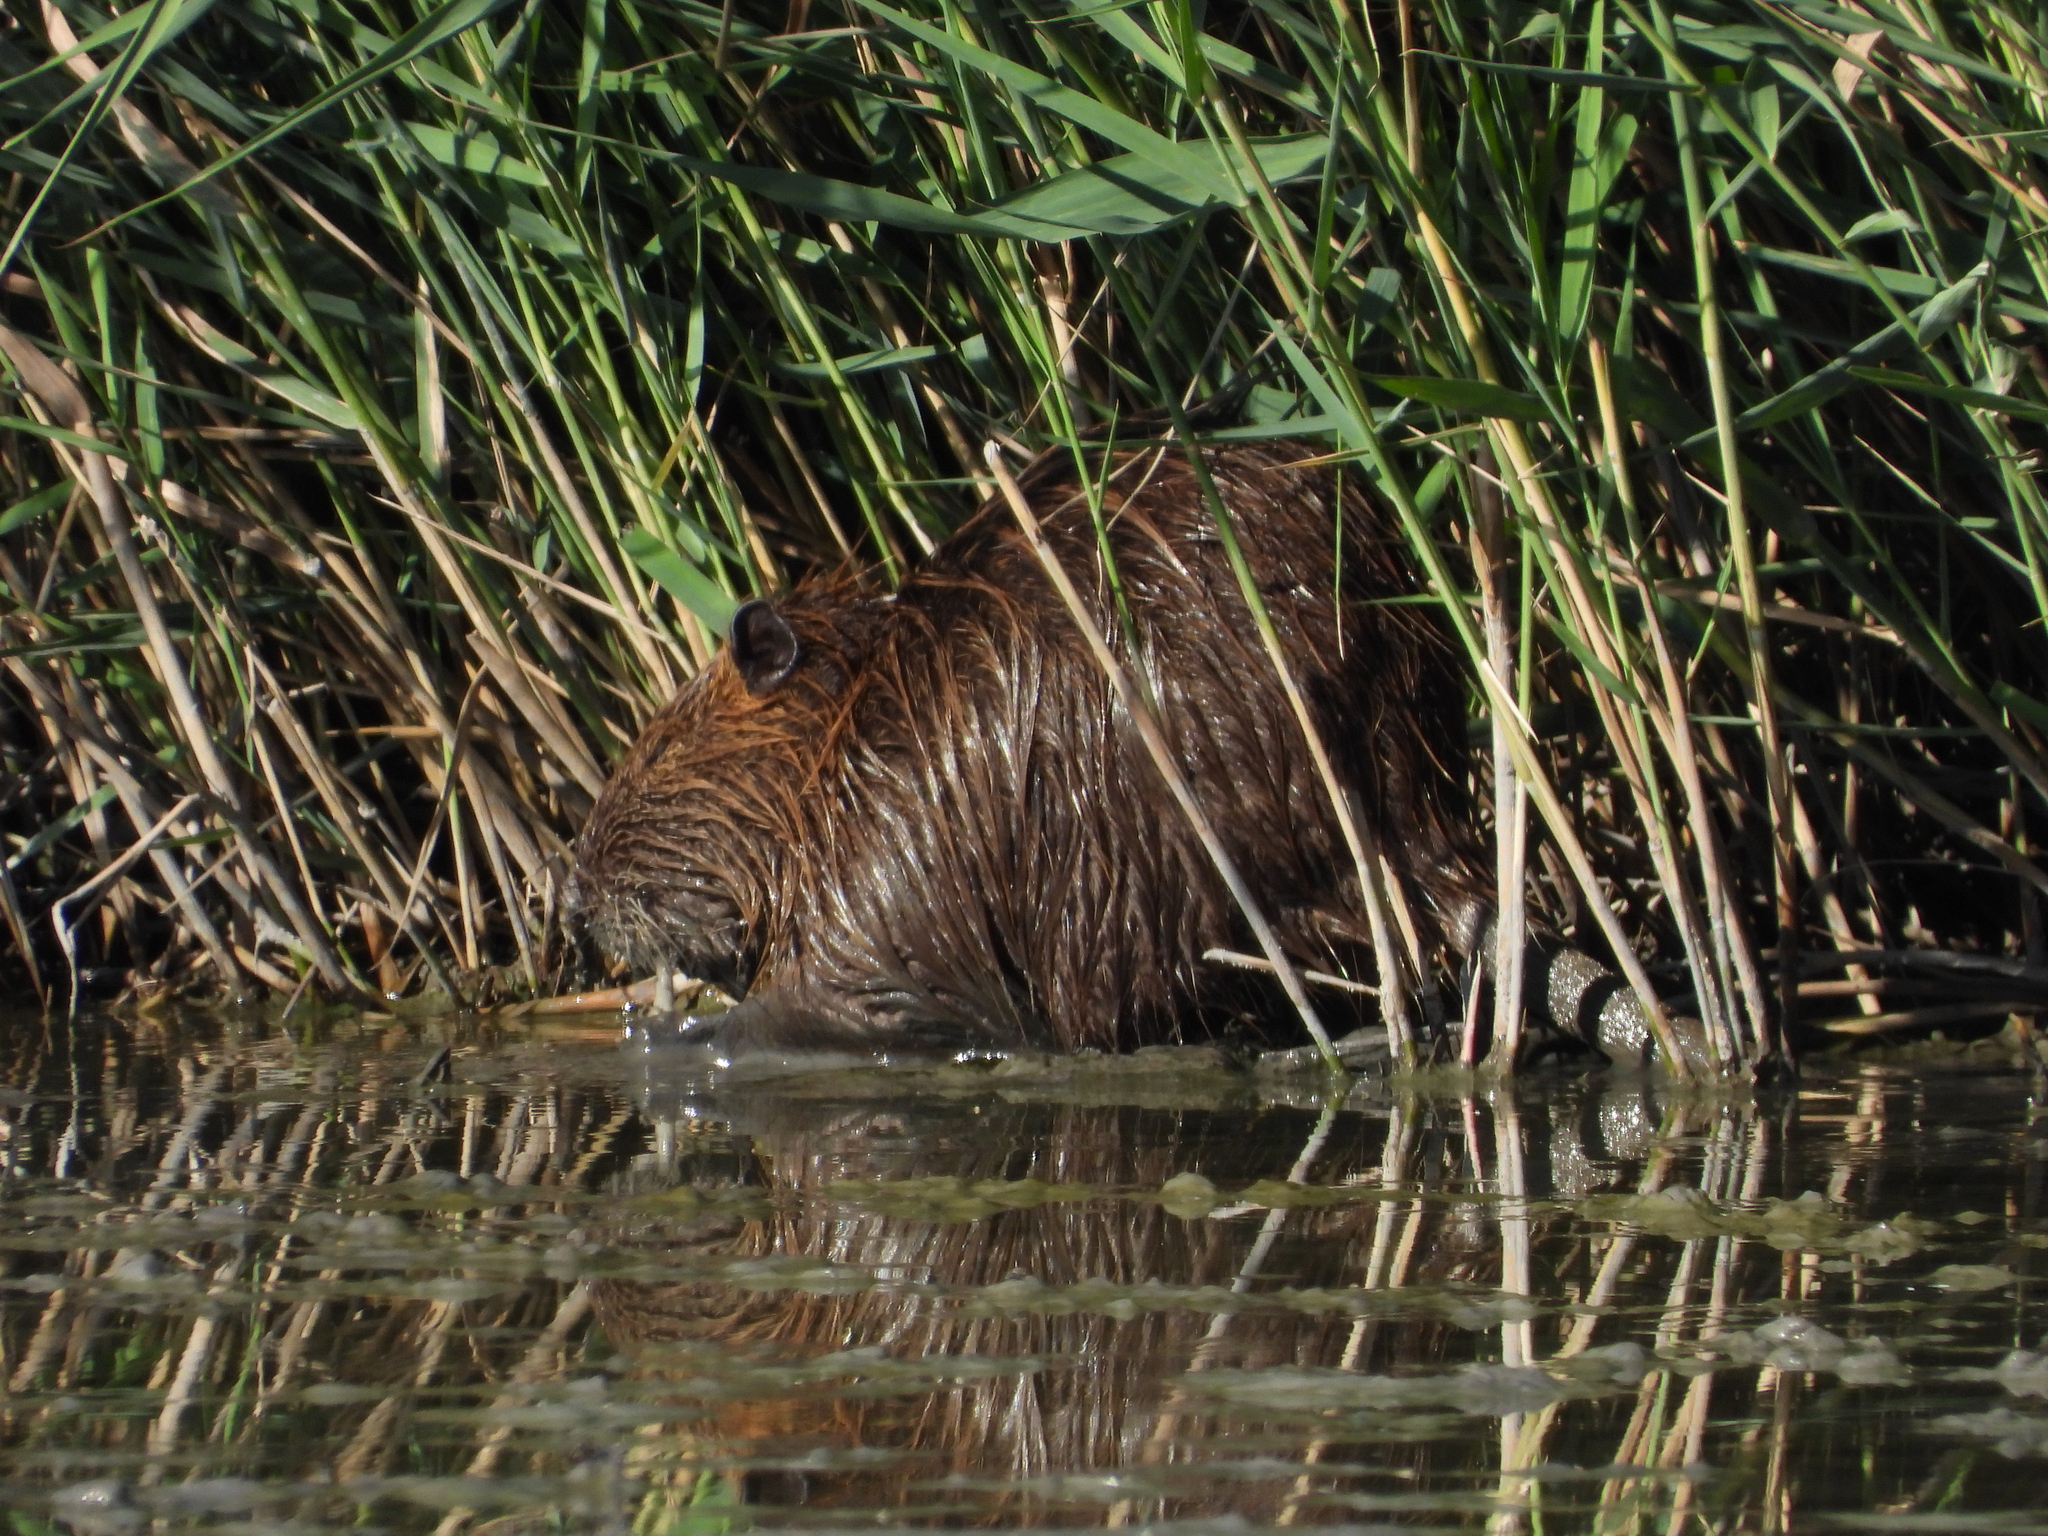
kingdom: Animalia
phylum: Chordata
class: Mammalia
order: Rodentia
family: Myocastoridae
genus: Myocastor
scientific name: Myocastor coypus
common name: Coypu
